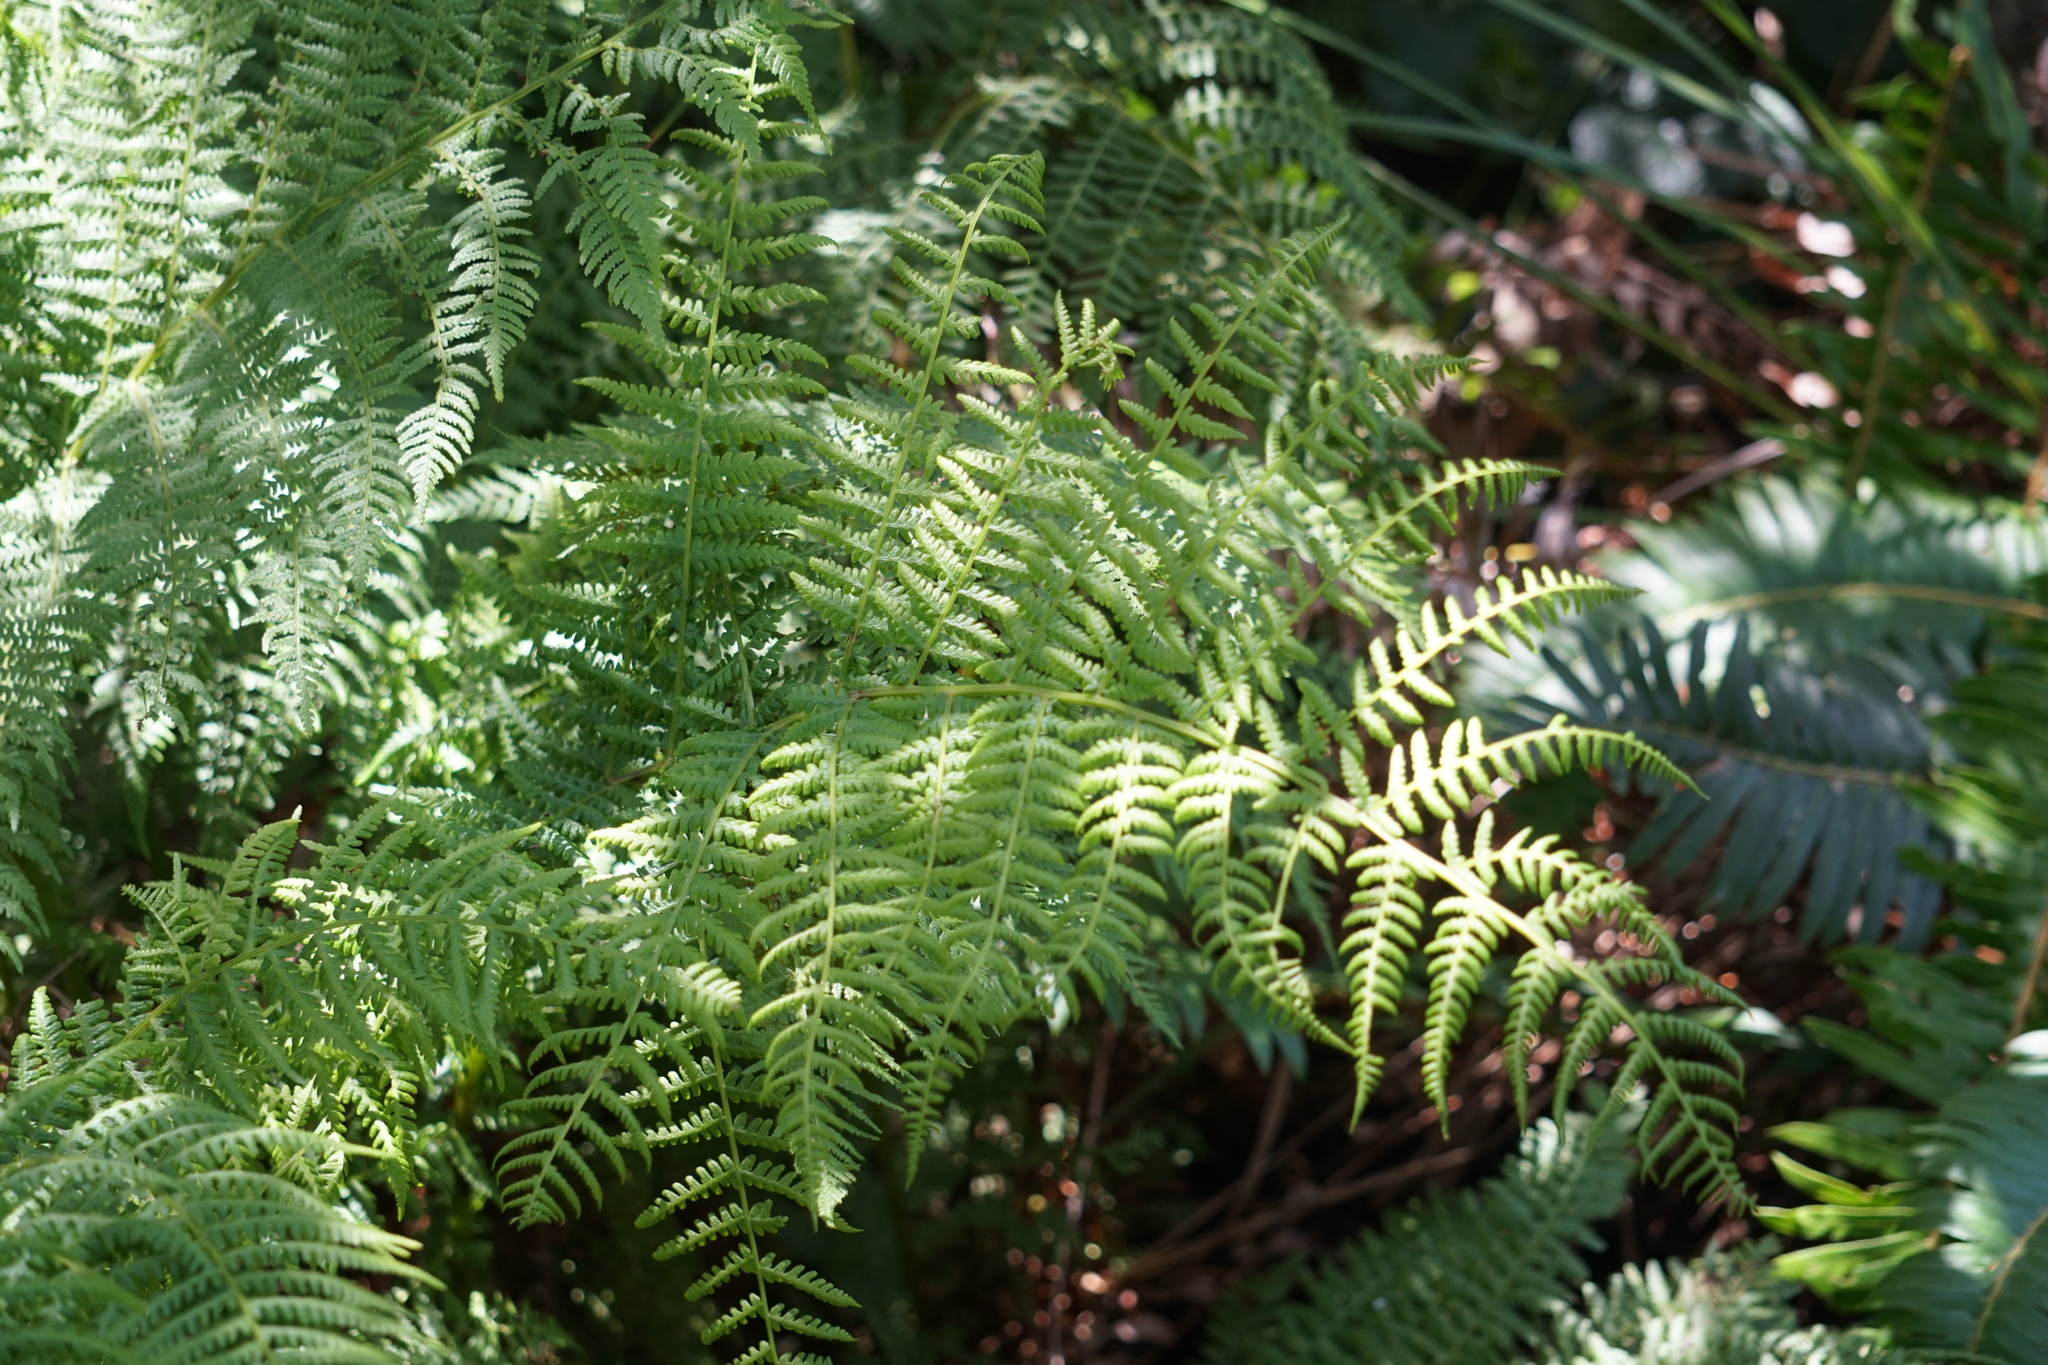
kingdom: Plantae
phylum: Tracheophyta
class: Polypodiopsida
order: Polypodiales
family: Athyriaceae
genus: Athyrium
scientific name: Athyrium filix-femina
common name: Lady fern
